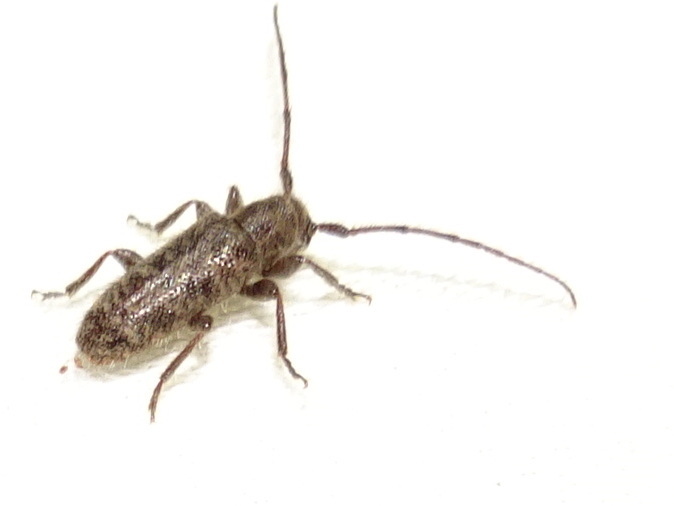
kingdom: Animalia
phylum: Arthropoda
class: Insecta
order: Coleoptera
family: Cerambycidae
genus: Eupogonius
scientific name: Eupogonius pauper
